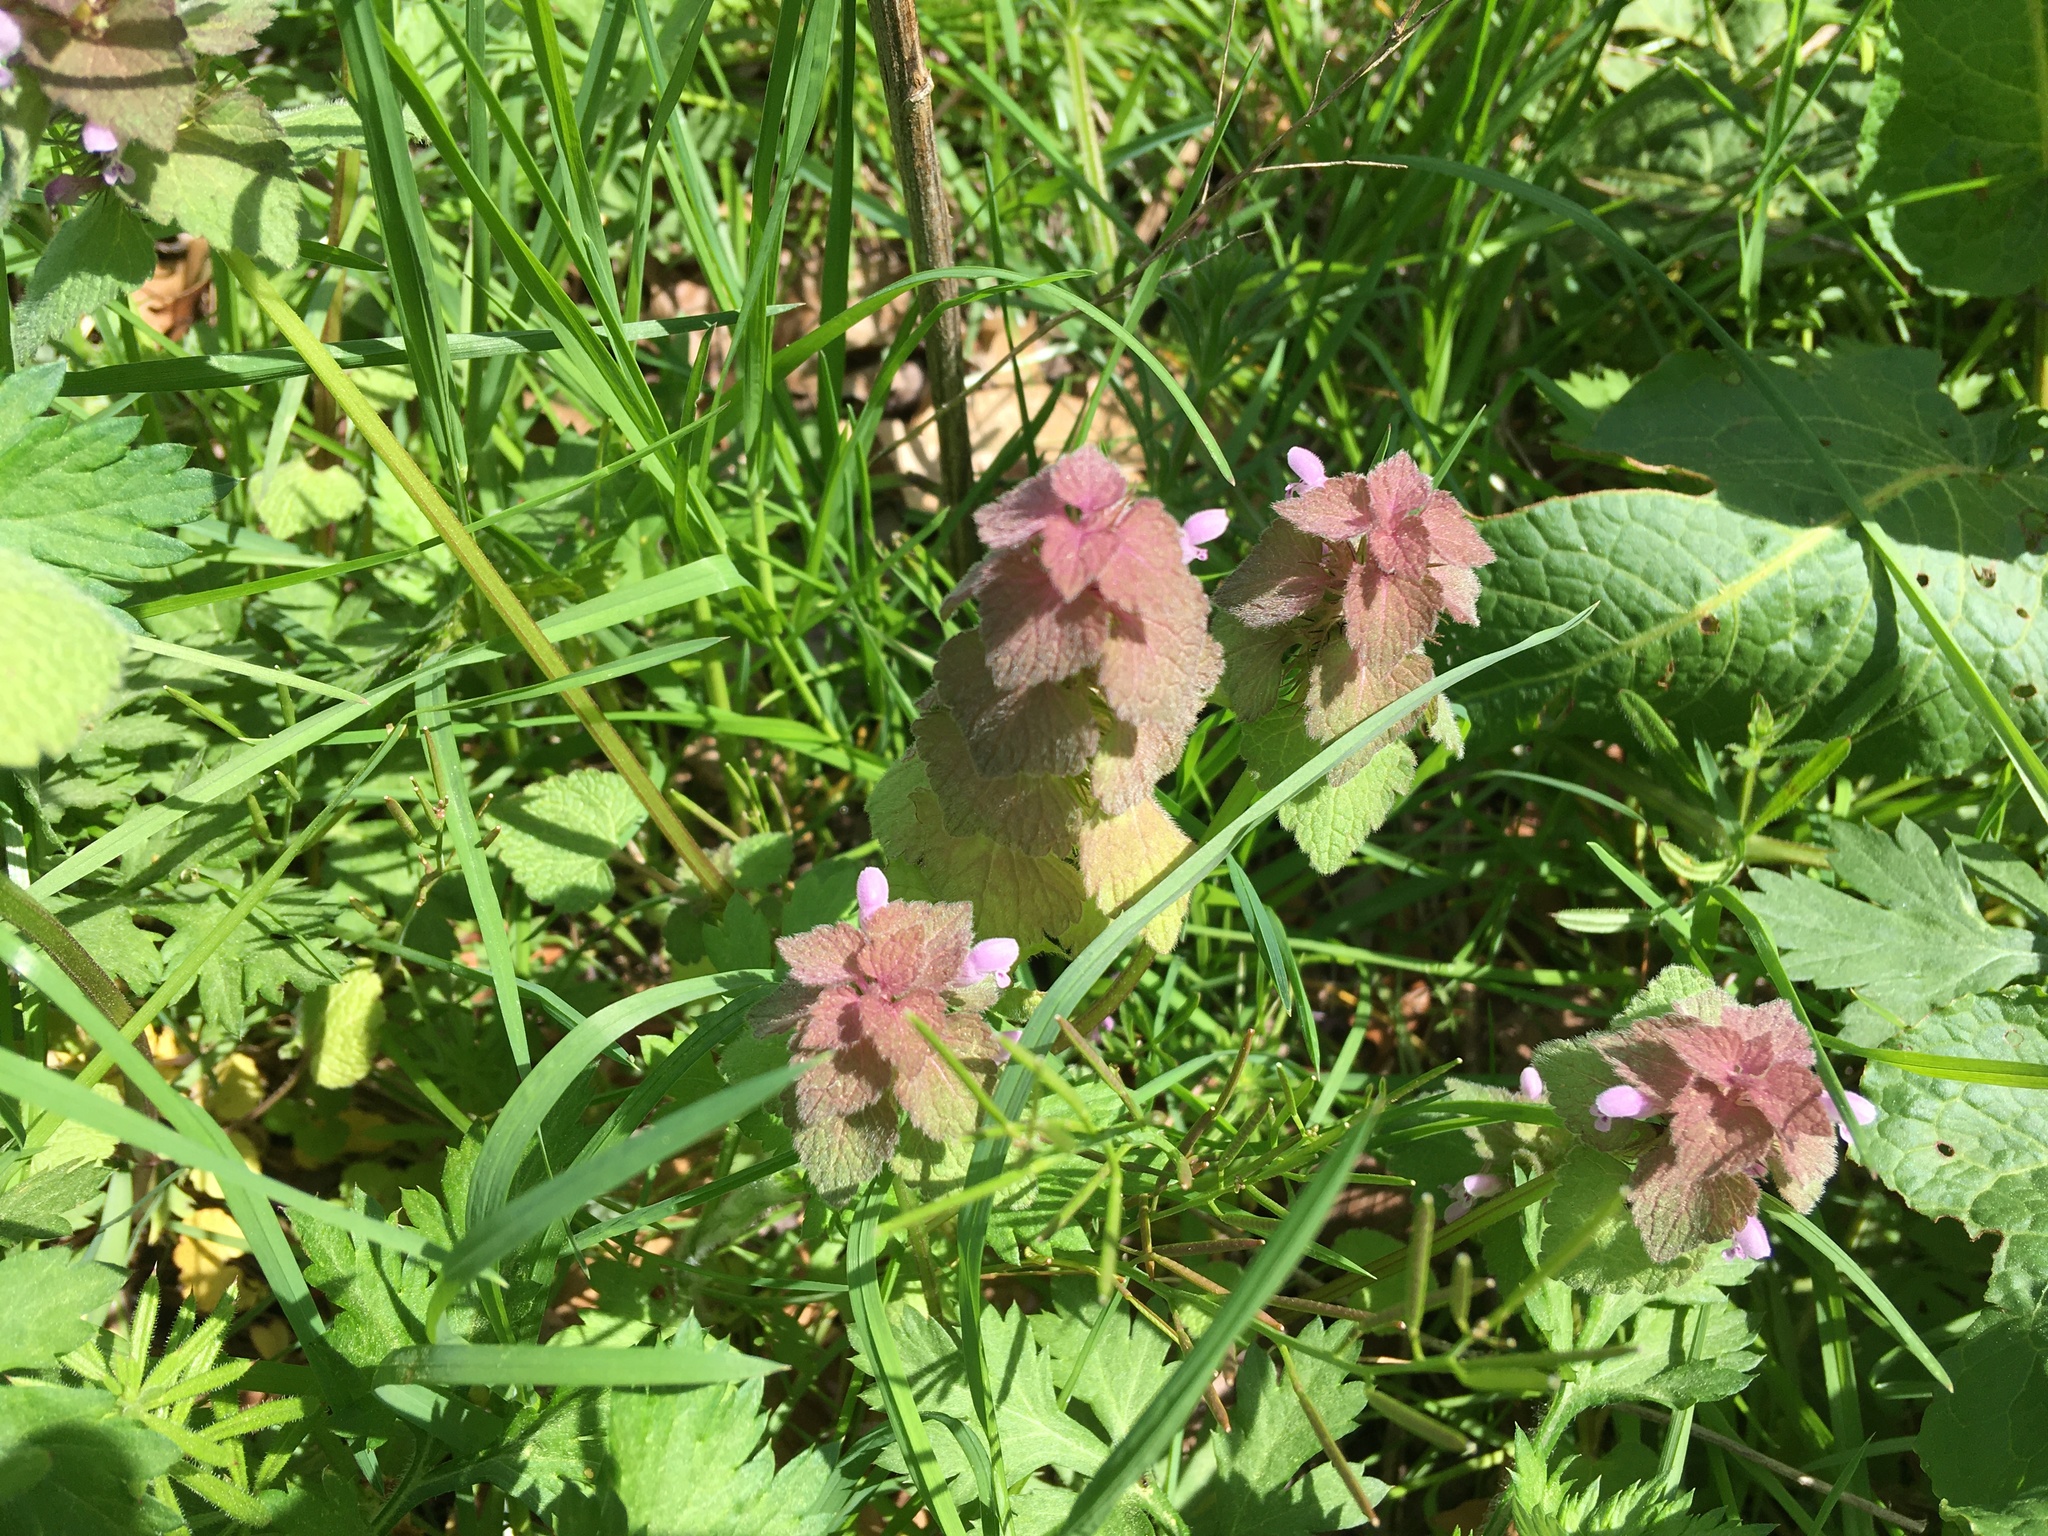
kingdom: Plantae
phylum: Tracheophyta
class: Magnoliopsida
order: Lamiales
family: Lamiaceae
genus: Lamium
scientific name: Lamium purpureum
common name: Red dead-nettle
